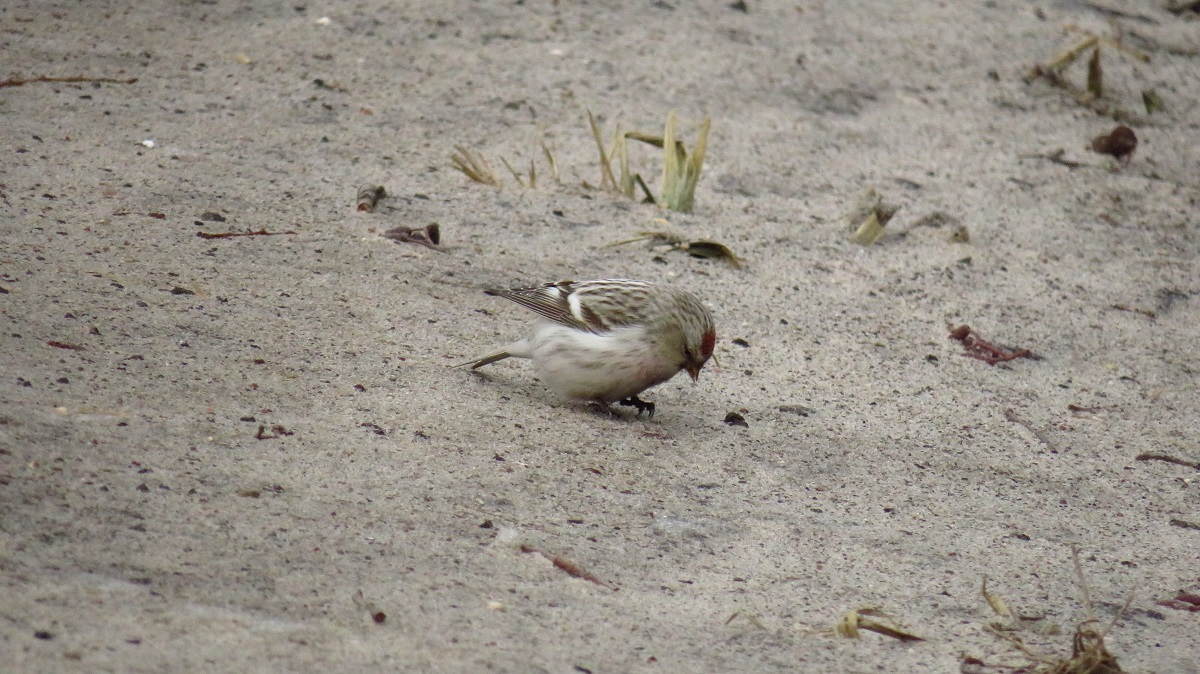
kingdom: Animalia
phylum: Chordata
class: Aves
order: Passeriformes
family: Fringillidae
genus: Acanthis
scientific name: Acanthis hornemanni
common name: Arctic redpoll
